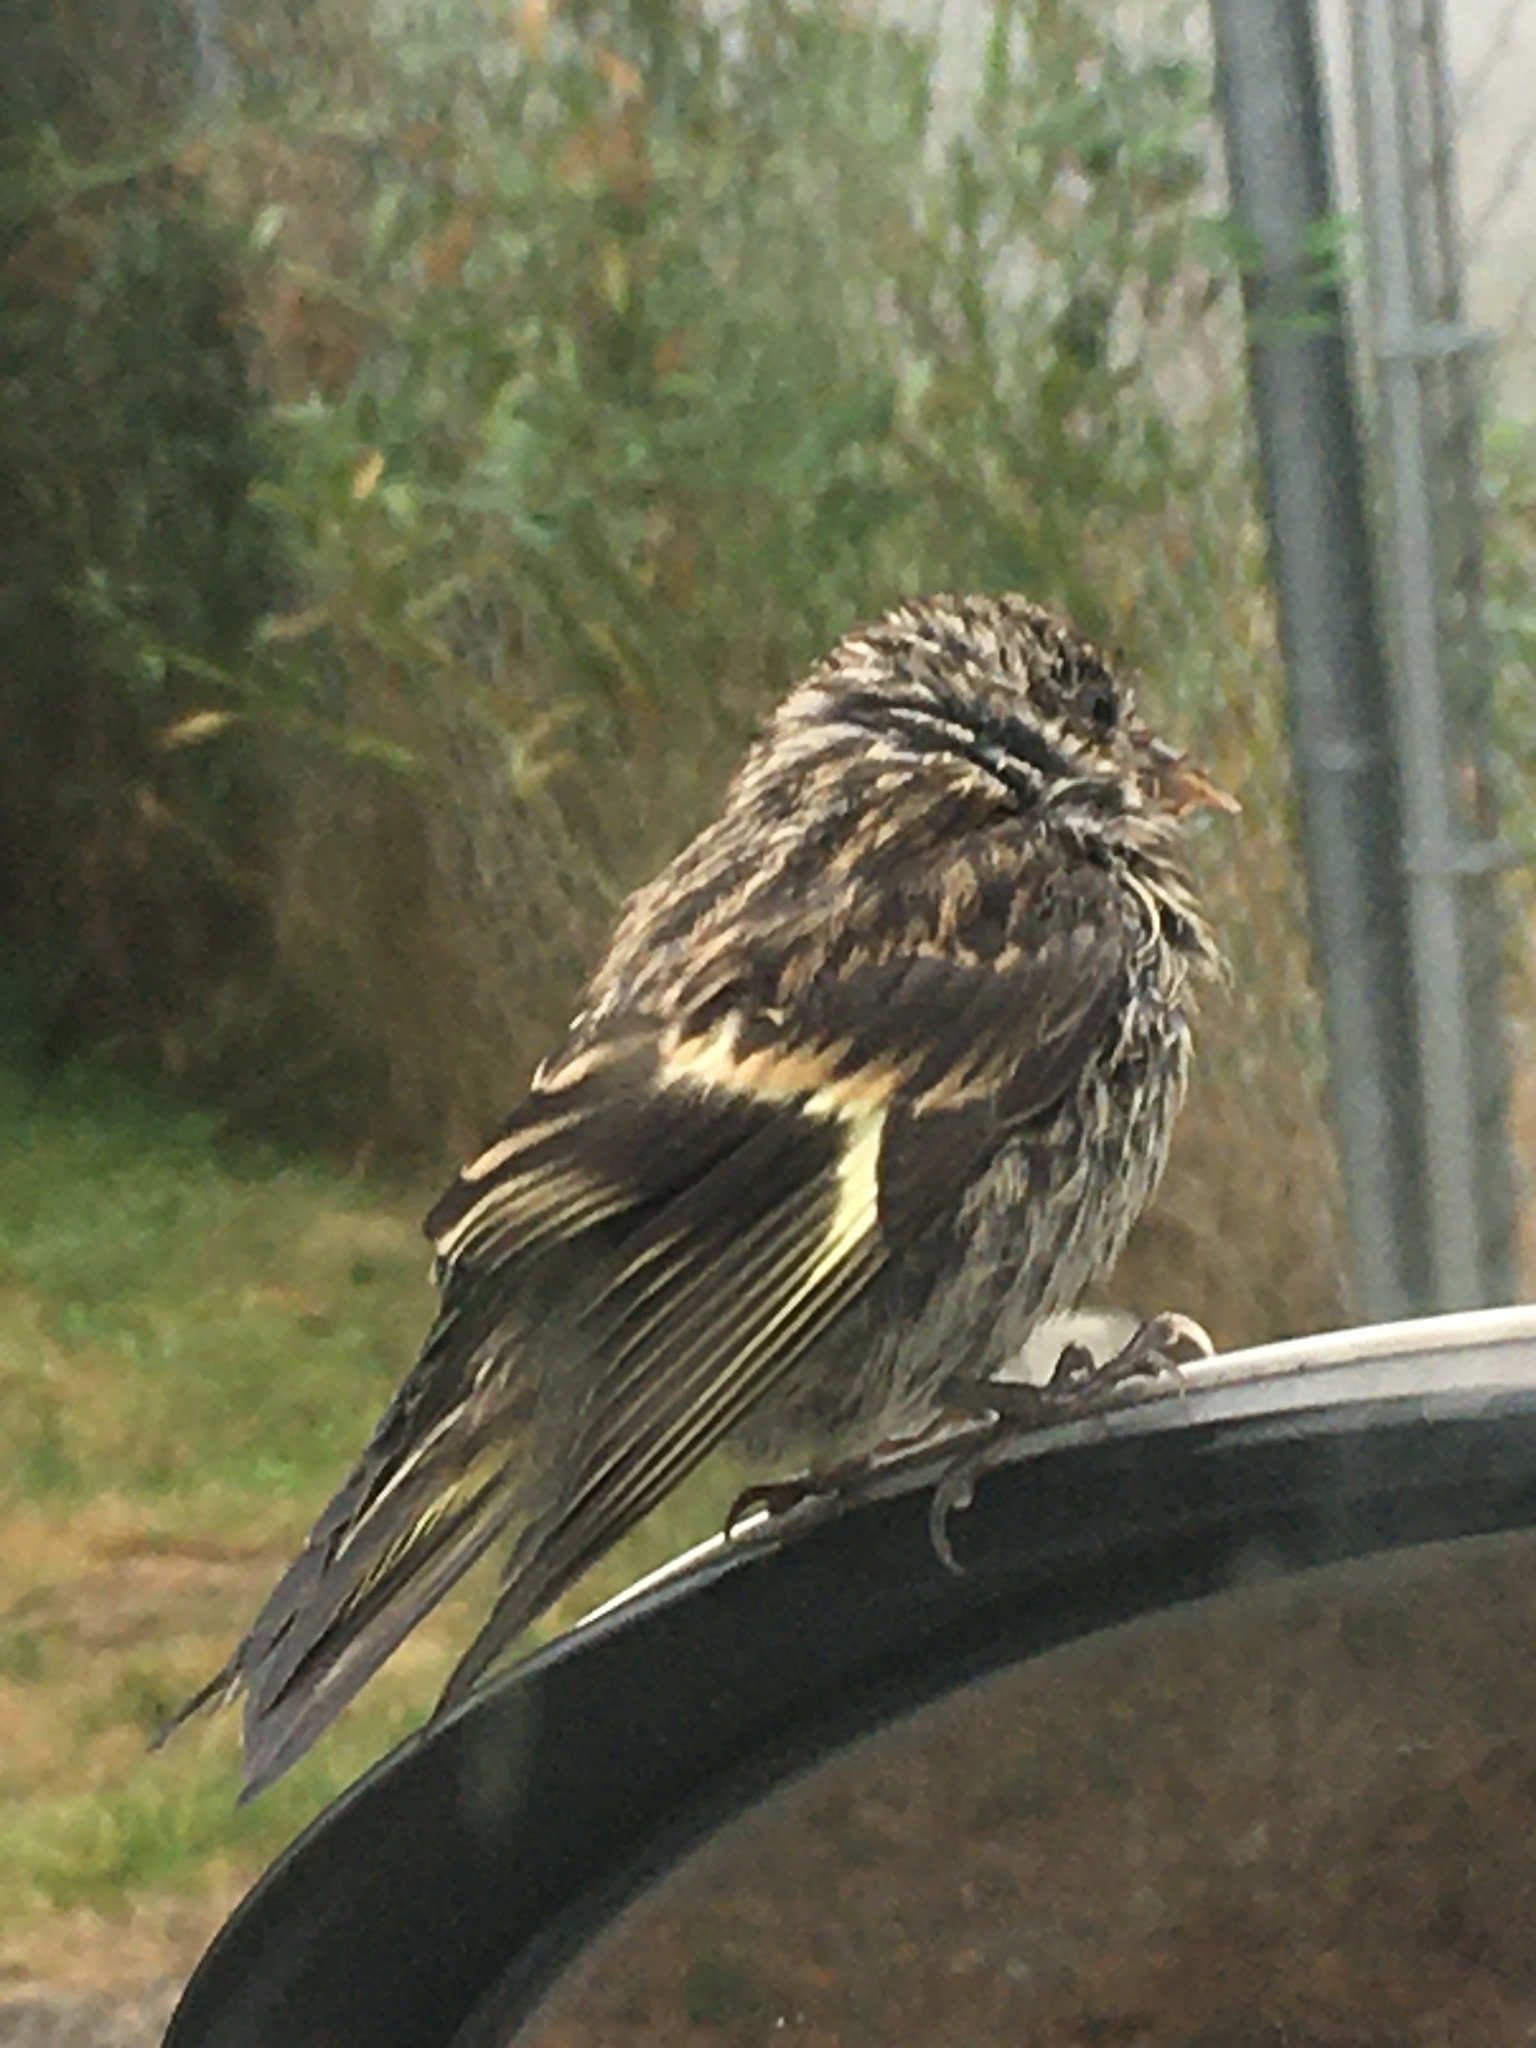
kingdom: Animalia
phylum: Chordata
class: Aves
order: Passeriformes
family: Fringillidae
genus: Spinus
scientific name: Spinus pinus
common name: Pine siskin
